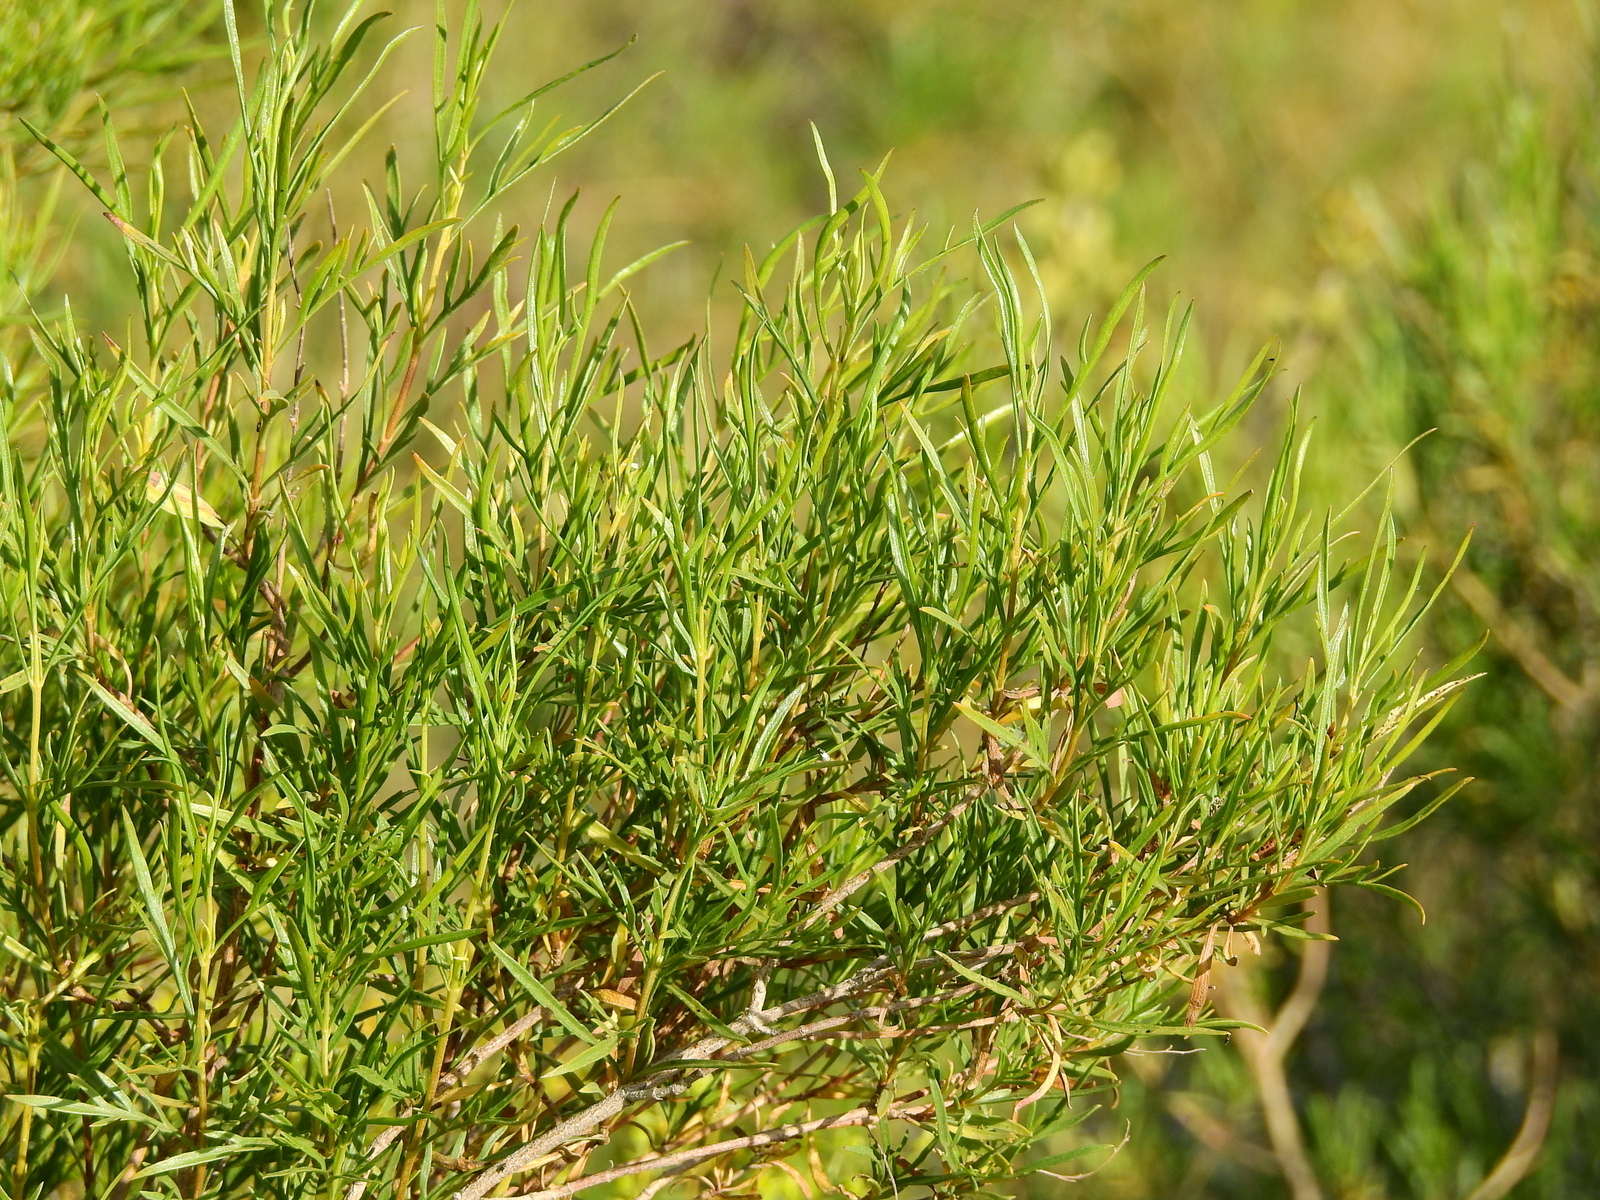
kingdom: Plantae
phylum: Tracheophyta
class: Magnoliopsida
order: Asterales
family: Asteraceae
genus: Acanthostyles
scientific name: Acanthostyles buniifolius
